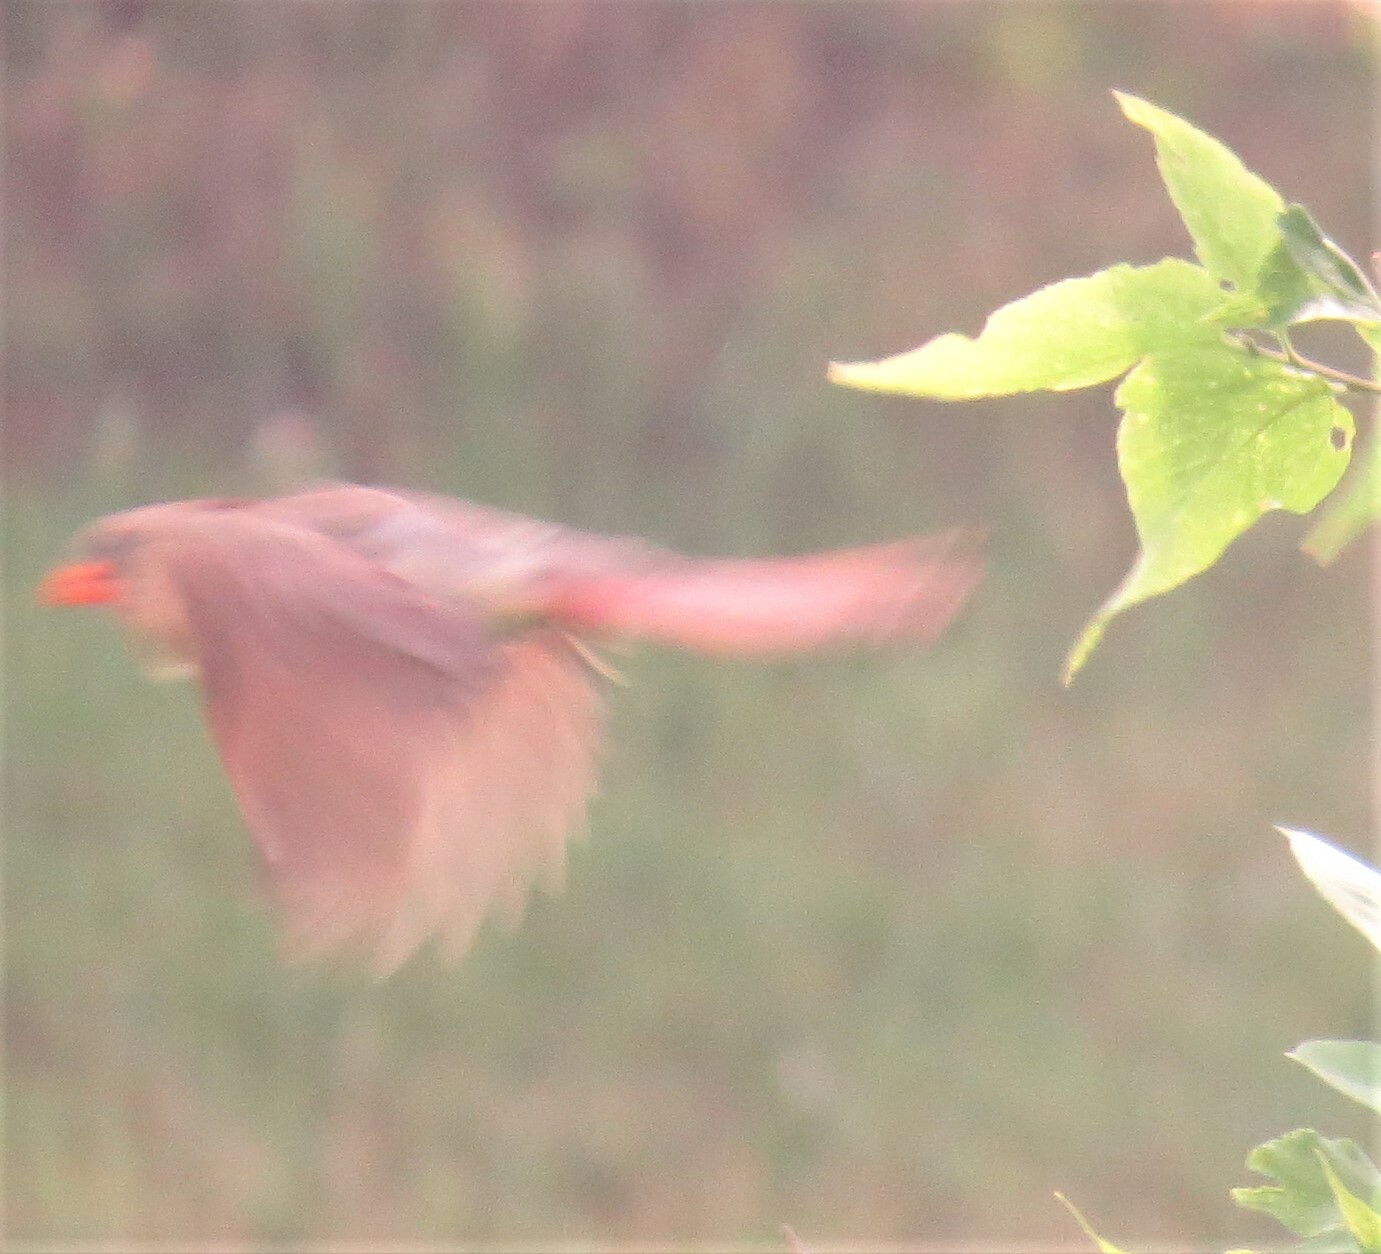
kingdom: Animalia
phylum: Chordata
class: Aves
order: Passeriformes
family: Cardinalidae
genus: Cardinalis
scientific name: Cardinalis cardinalis
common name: Northern cardinal
